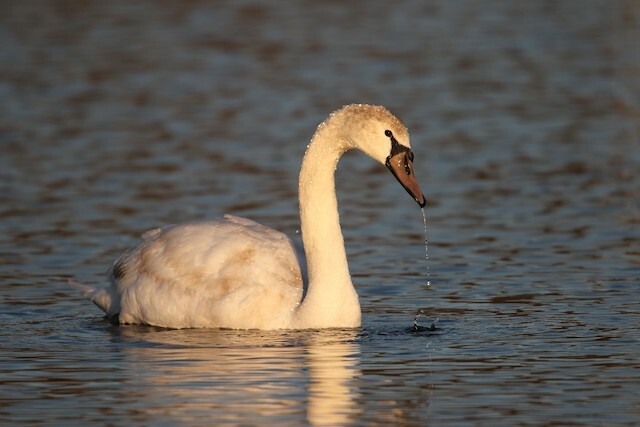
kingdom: Animalia
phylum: Chordata
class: Aves
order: Anseriformes
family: Anatidae
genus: Cygnus
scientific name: Cygnus olor
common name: Mute swan
